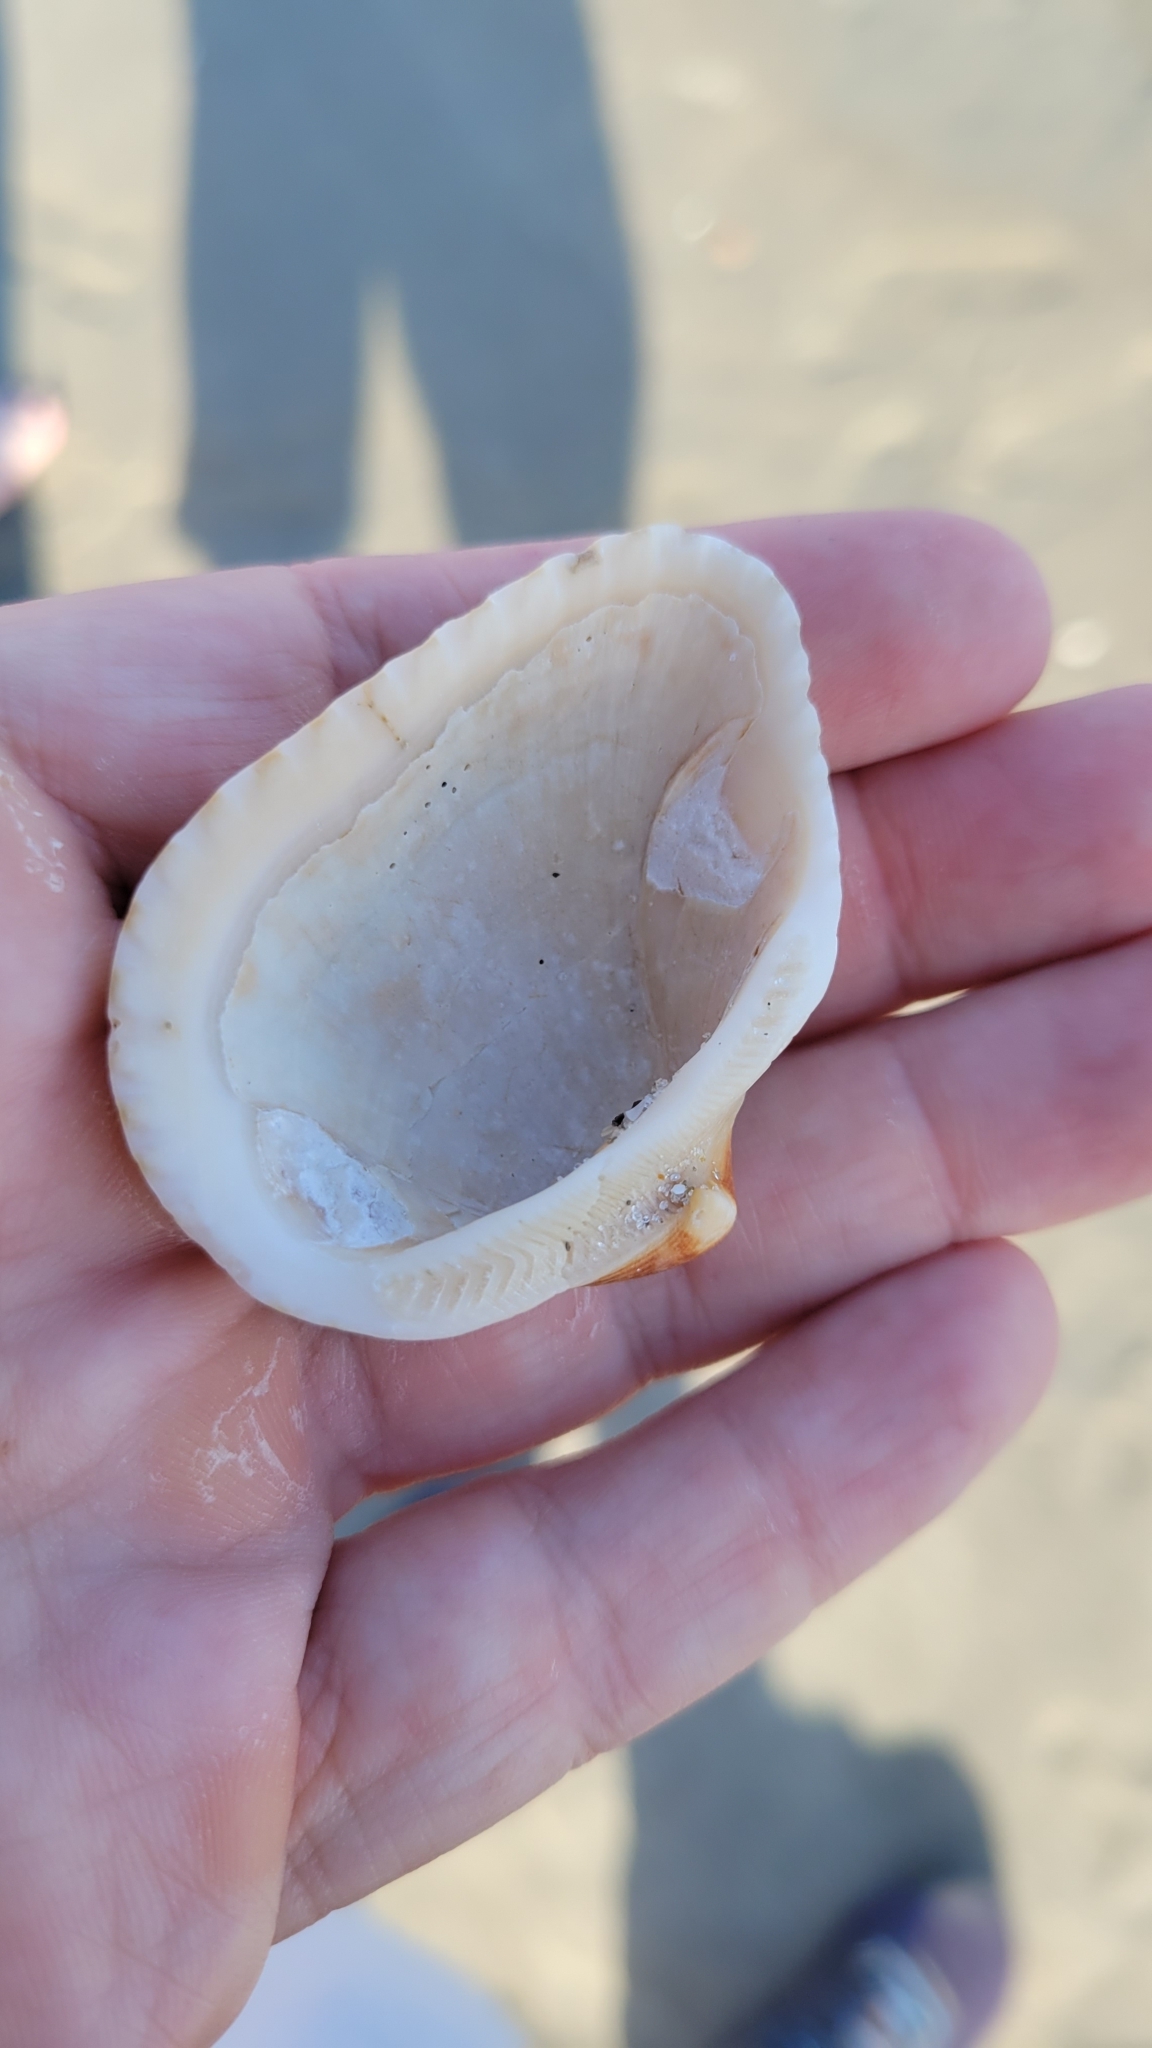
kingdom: Animalia
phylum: Mollusca
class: Bivalvia
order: Arcida
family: Noetiidae
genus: Noetia
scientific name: Noetia ponderosa
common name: Ponderous ark
